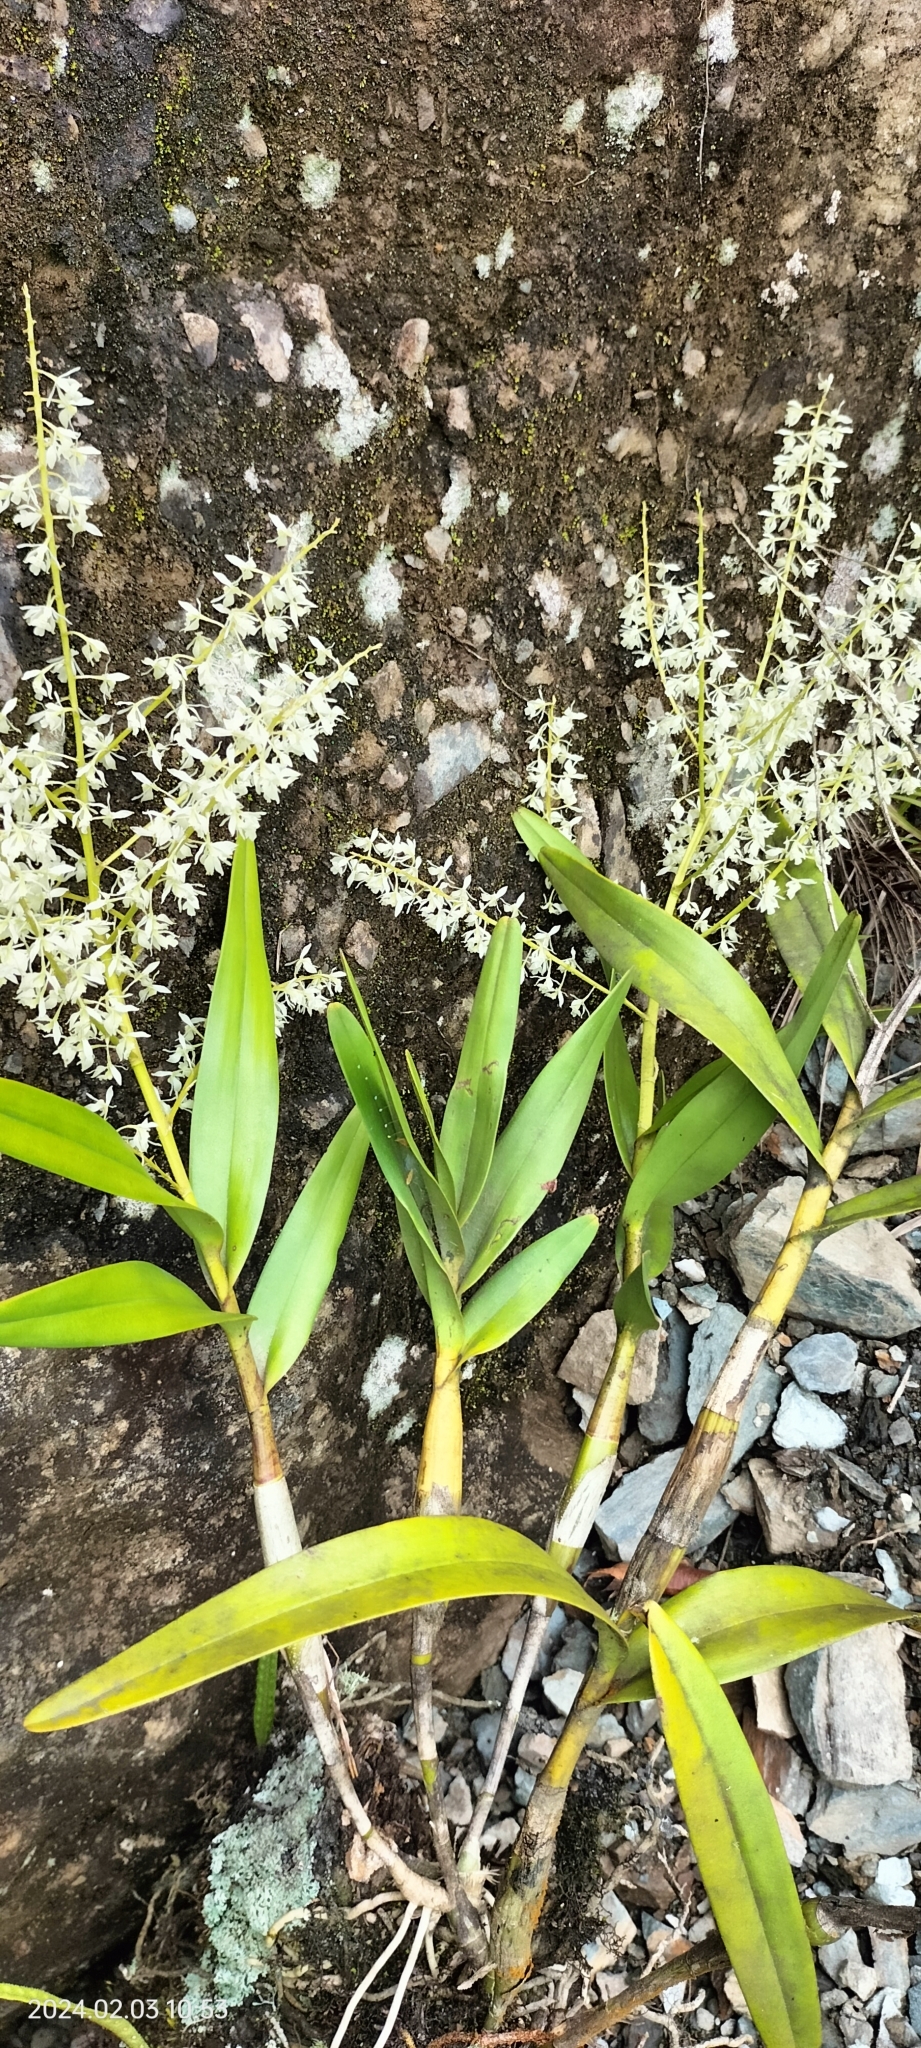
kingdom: Plantae
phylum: Tracheophyta
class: Liliopsida
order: Asparagales
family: Orchidaceae
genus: Epidendrum
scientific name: Epidendrum lanipes
